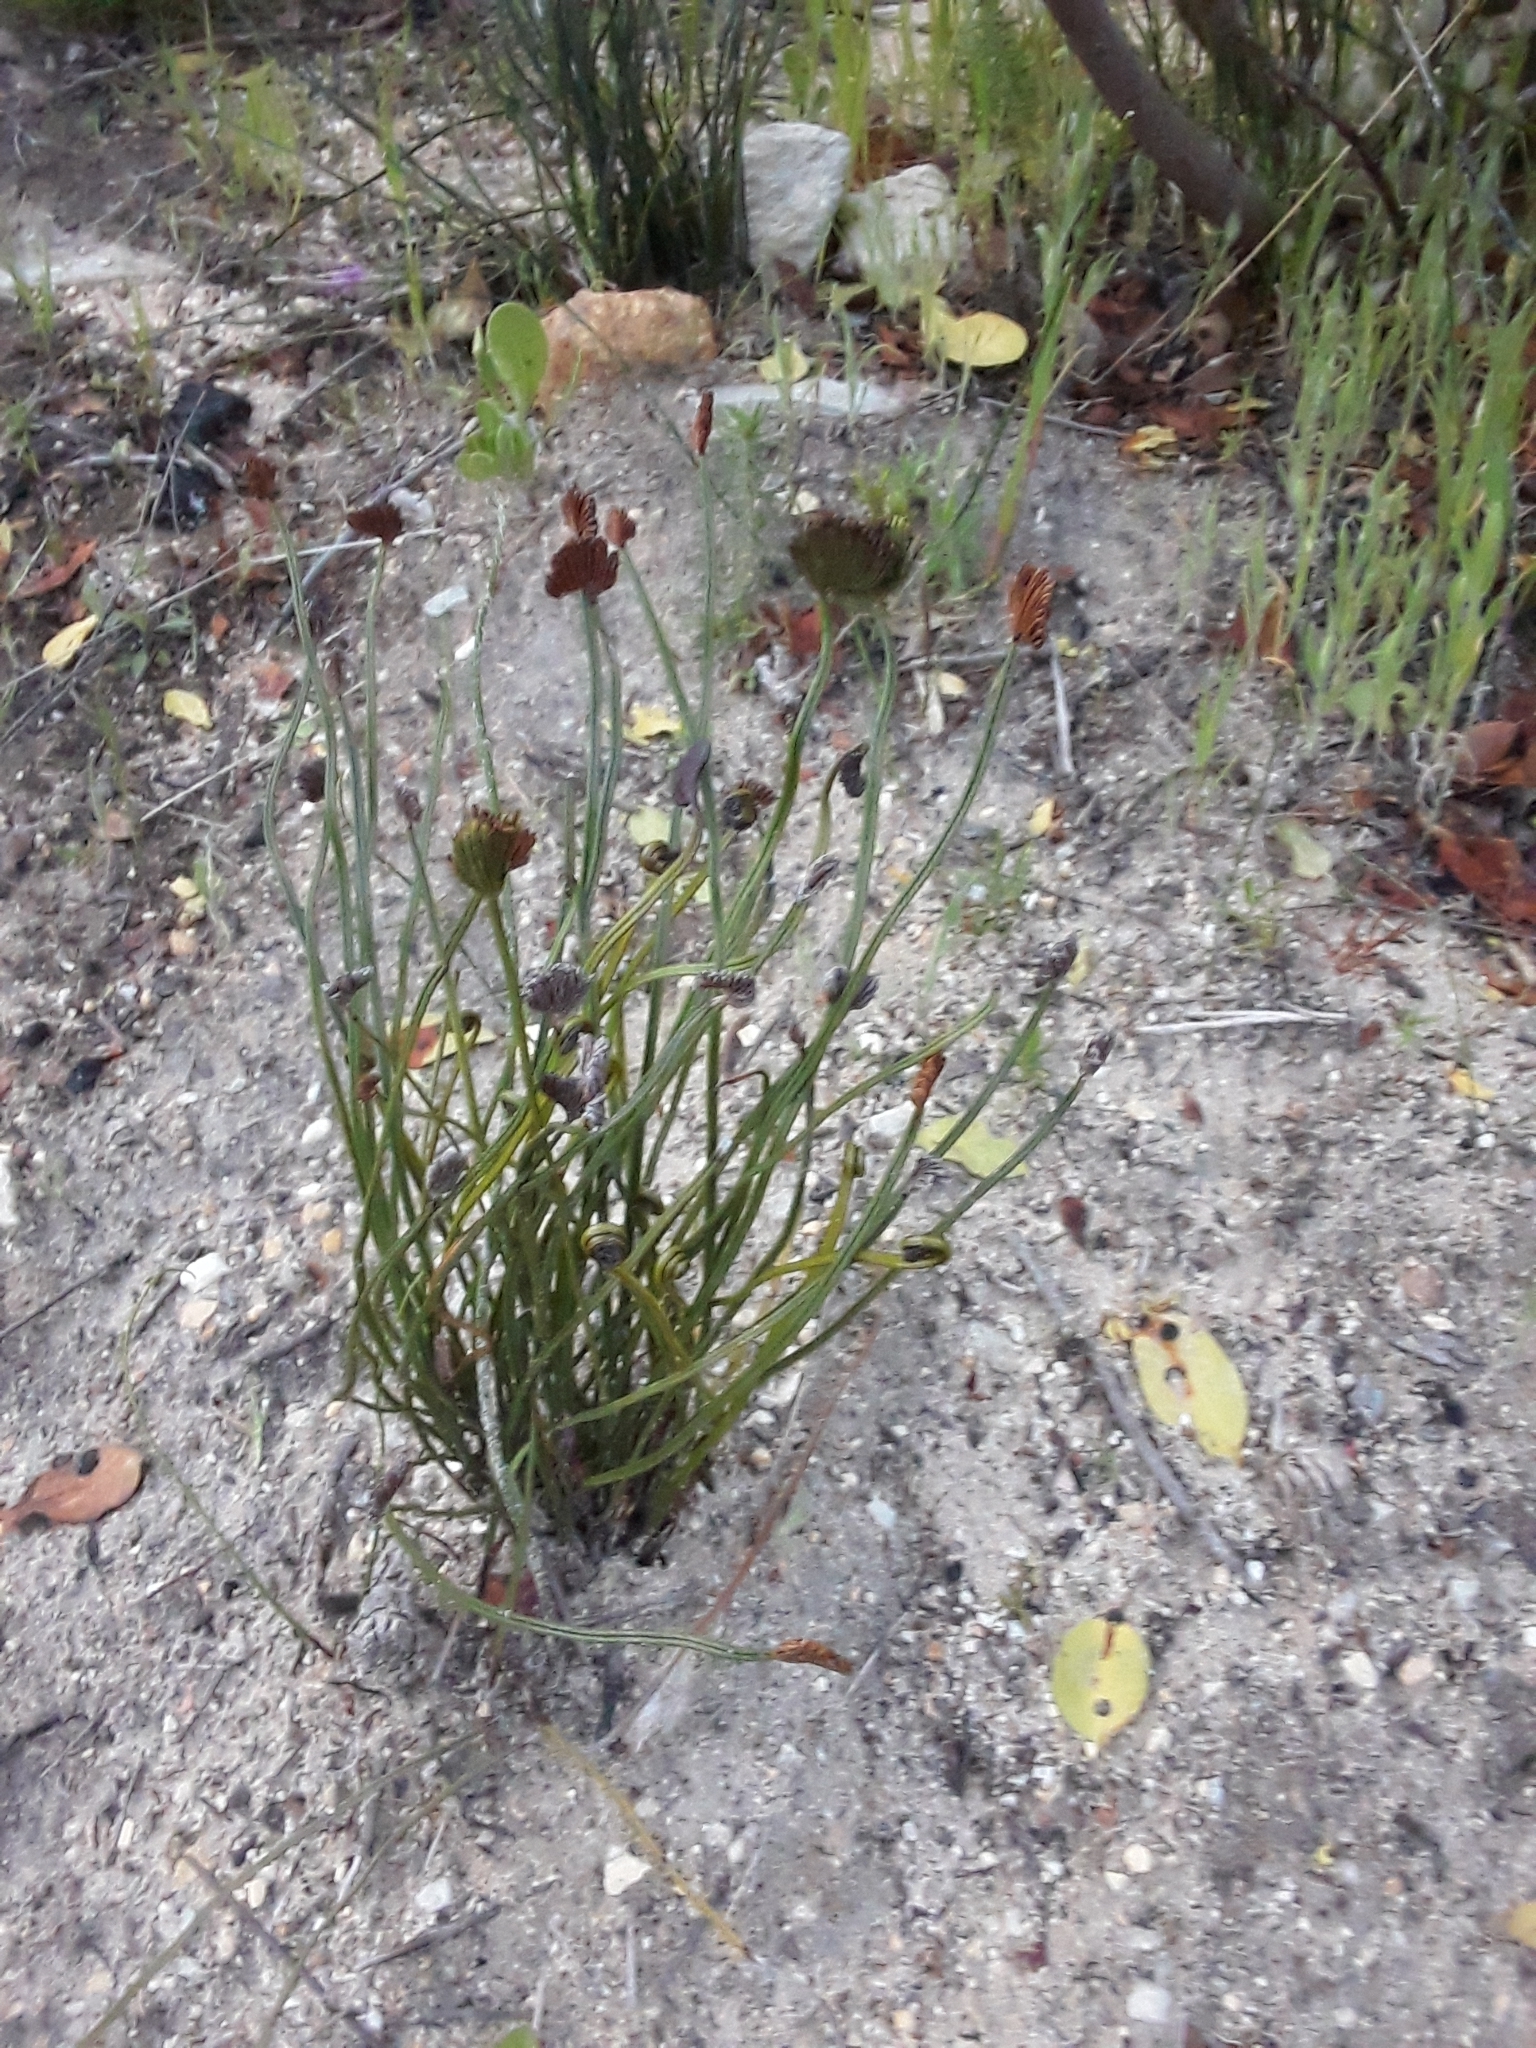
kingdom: Plantae
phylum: Tracheophyta
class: Polypodiopsida
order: Schizaeales
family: Schizaeaceae
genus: Schizaea
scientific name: Schizaea pectinata
